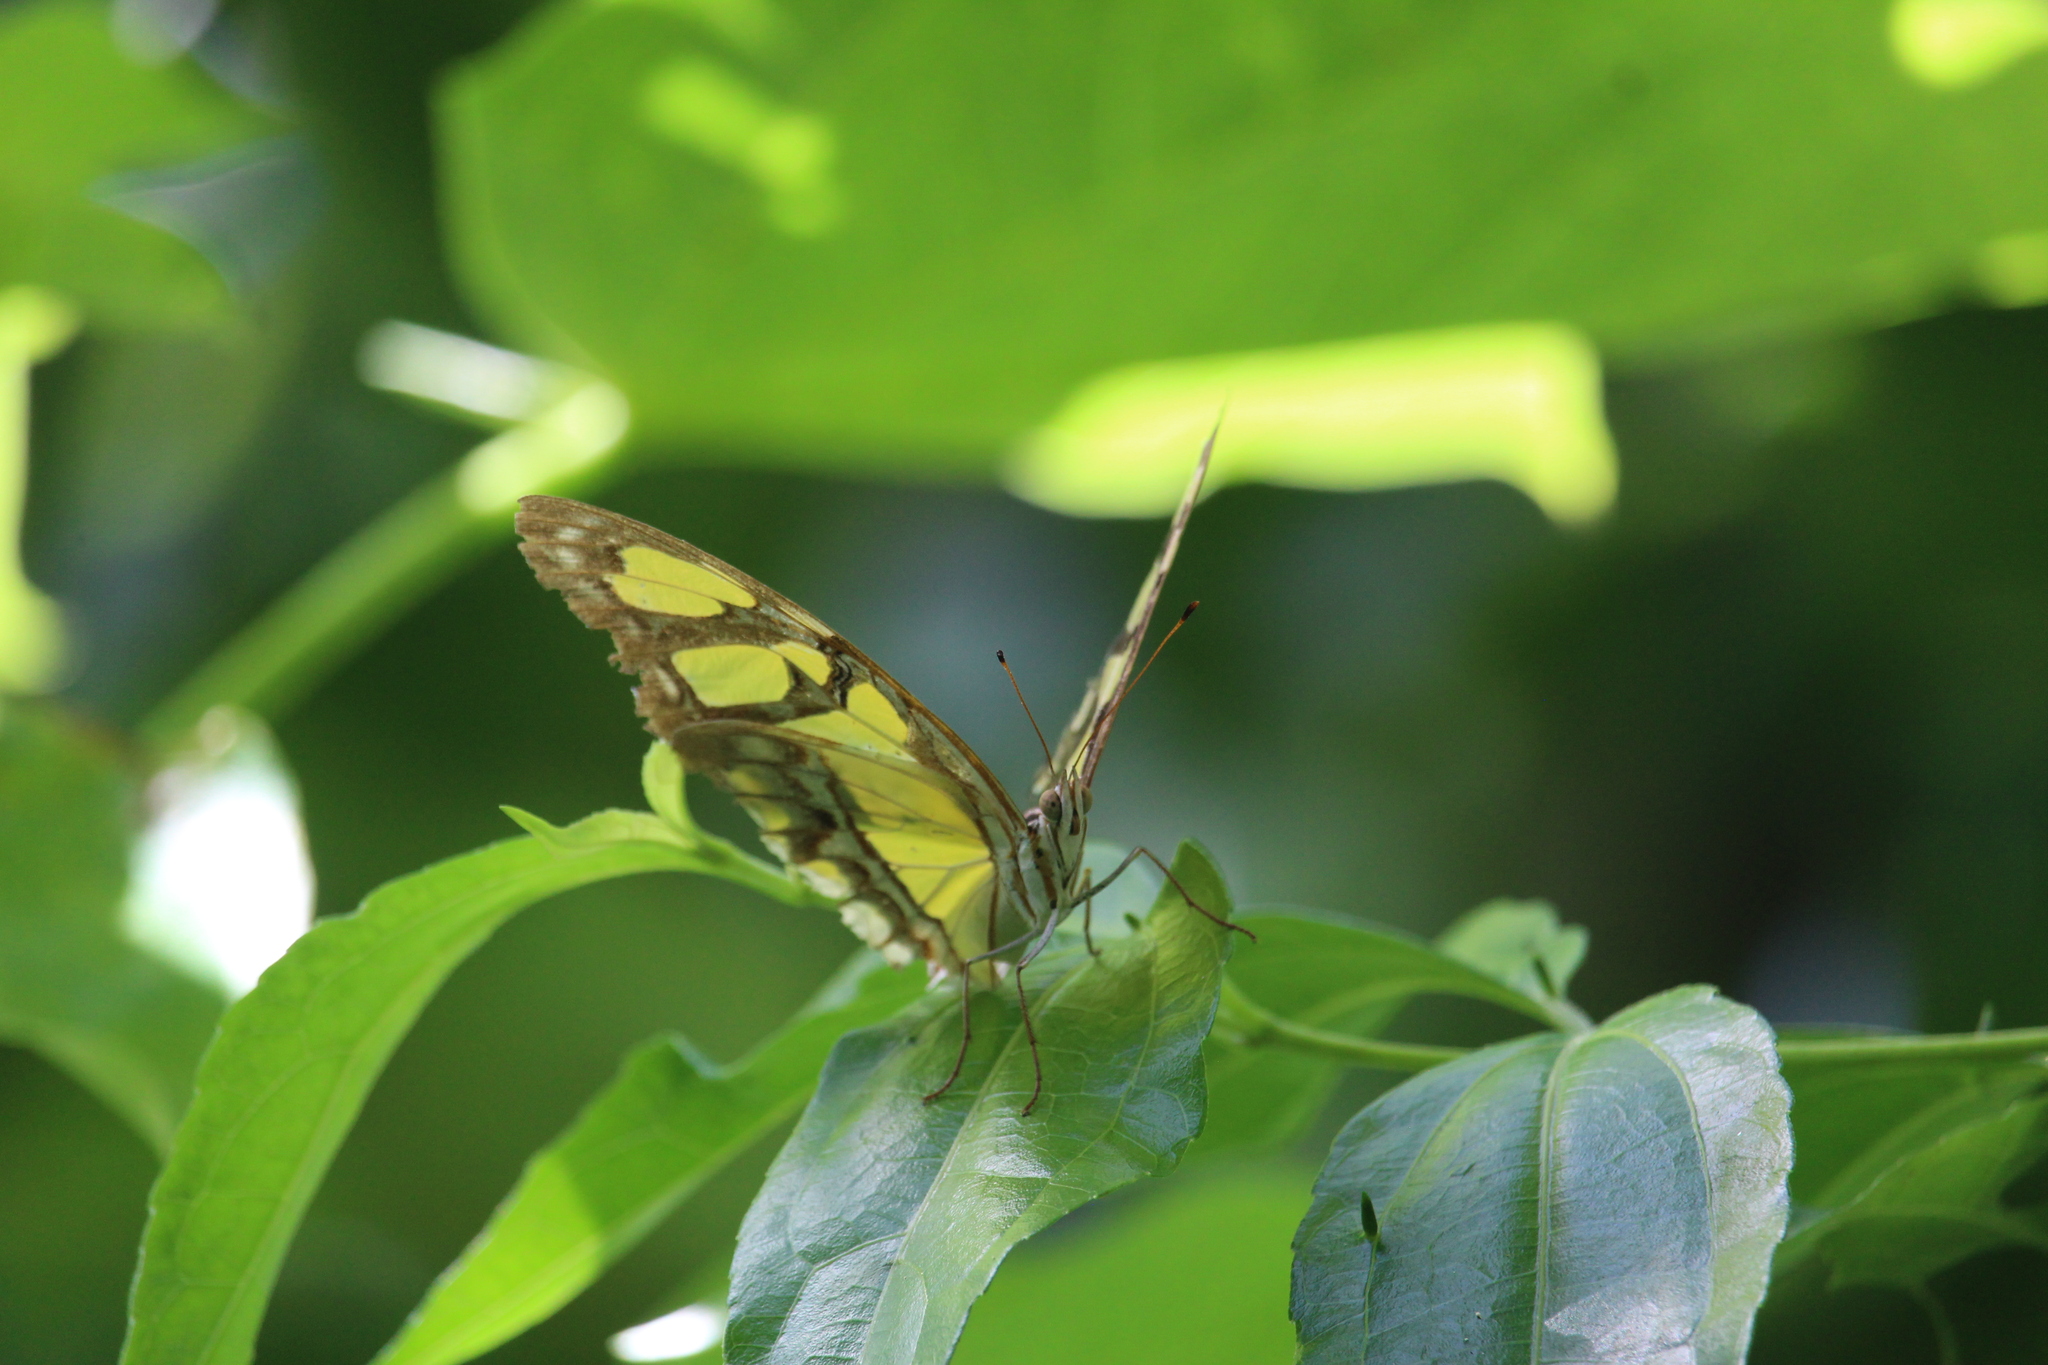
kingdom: Animalia
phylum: Arthropoda
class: Insecta
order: Lepidoptera
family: Nymphalidae
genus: Siproeta
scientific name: Siproeta stelenes
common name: Malachite
